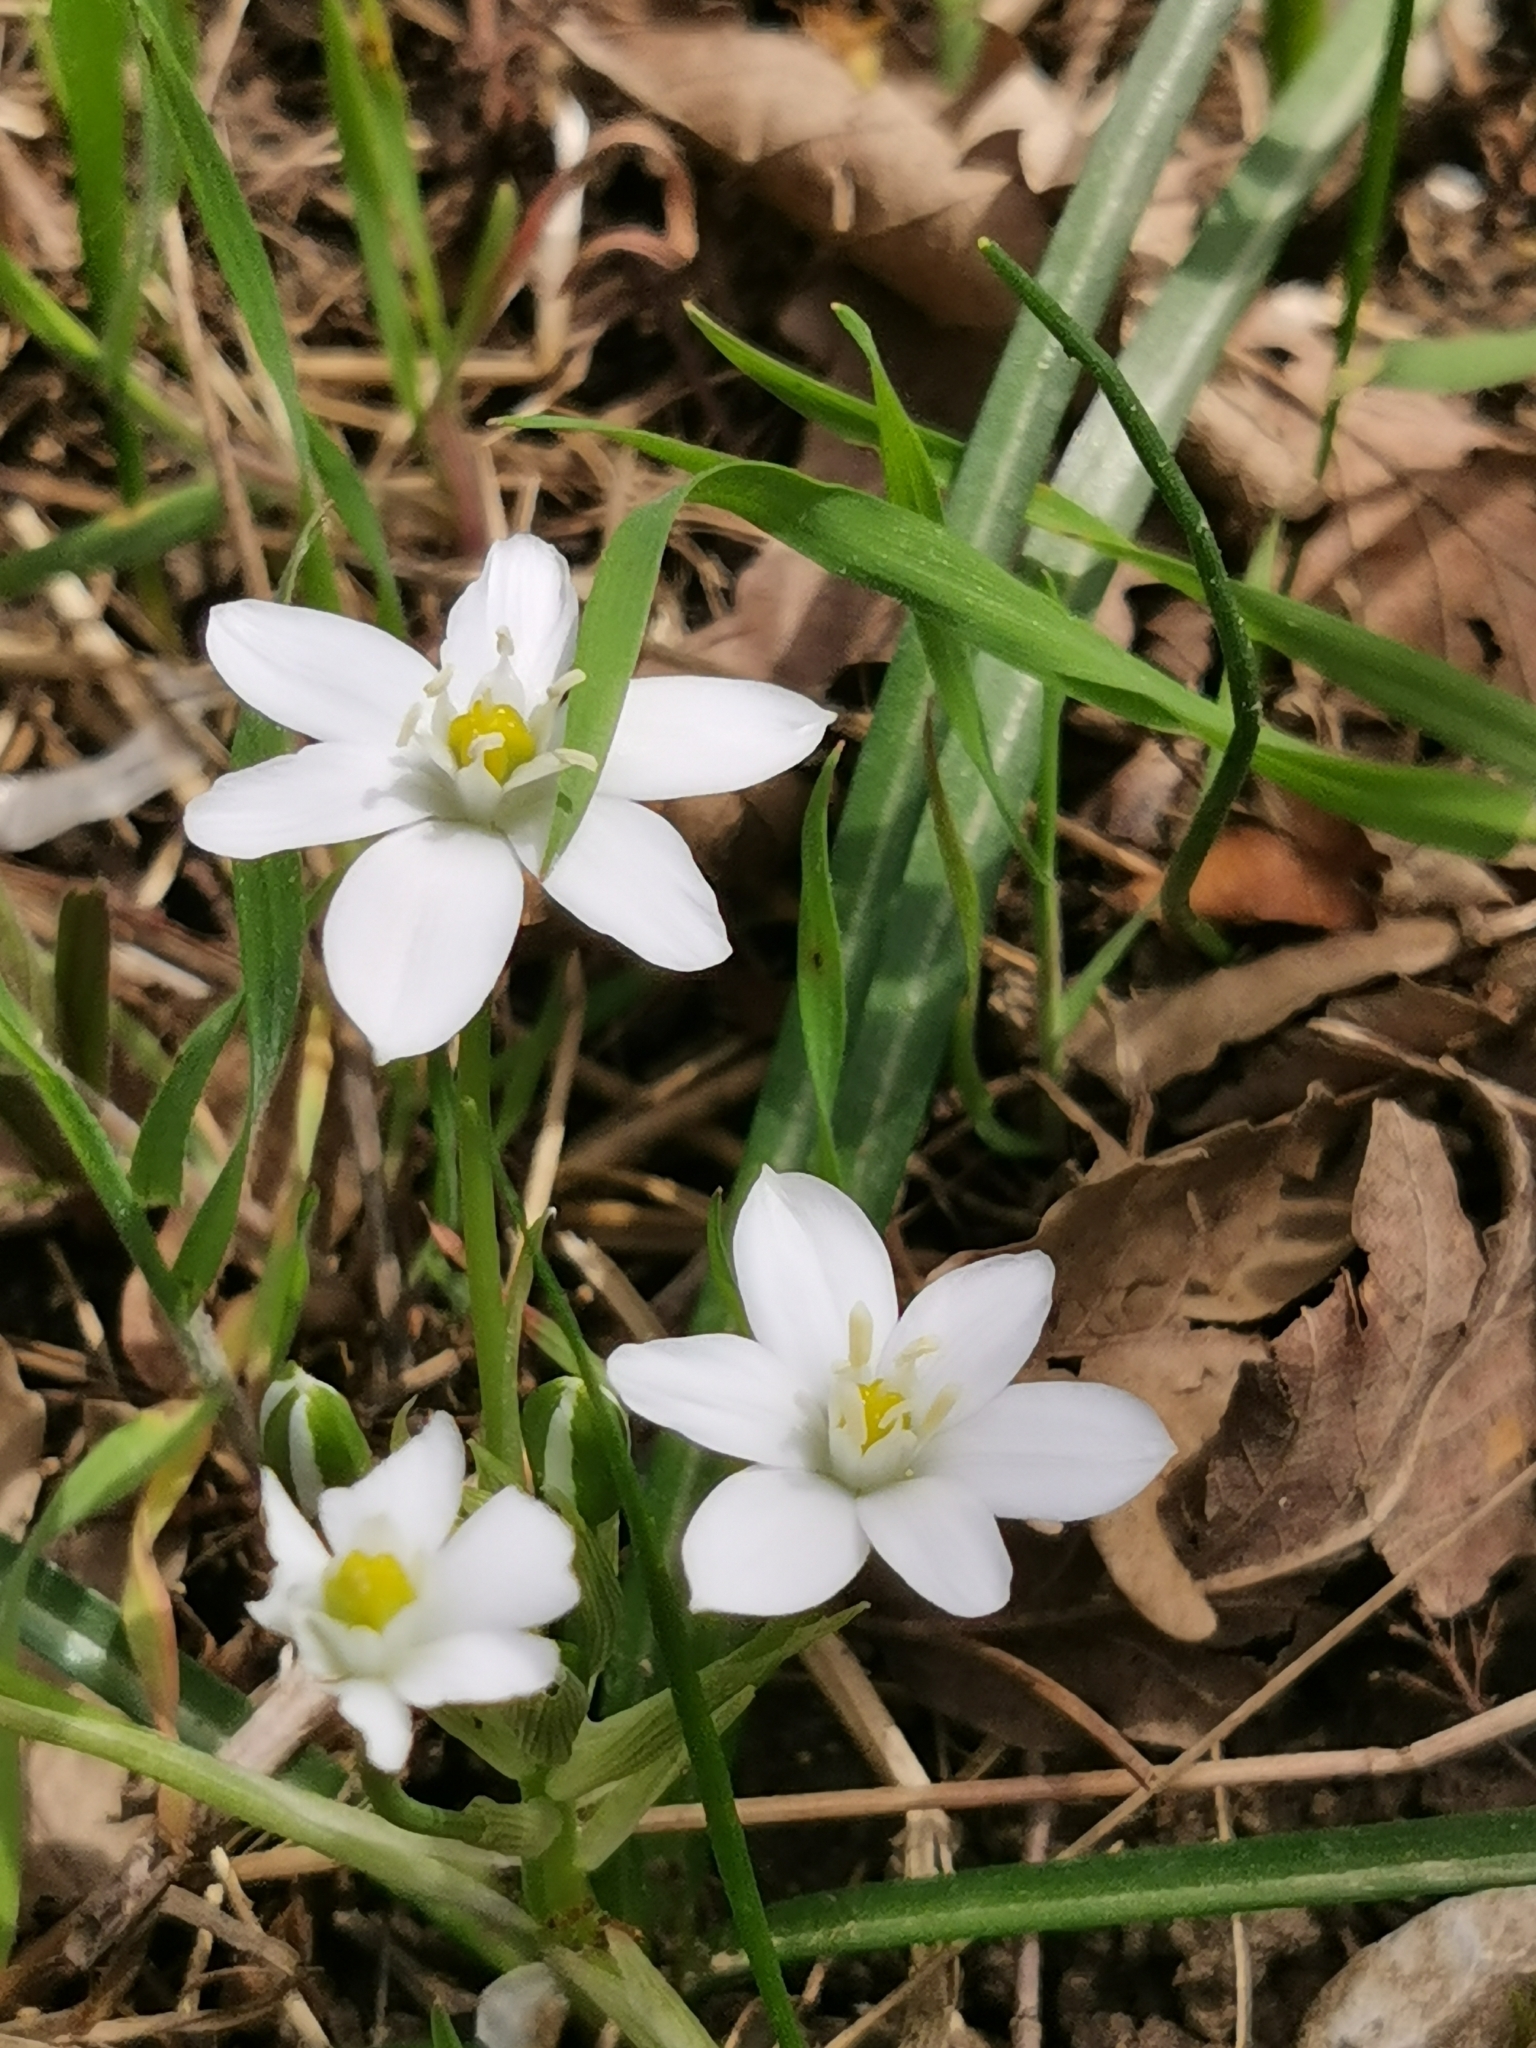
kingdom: Plantae
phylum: Tracheophyta
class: Liliopsida
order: Asparagales
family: Asparagaceae
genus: Ornithogalum
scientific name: Ornithogalum woronowii
